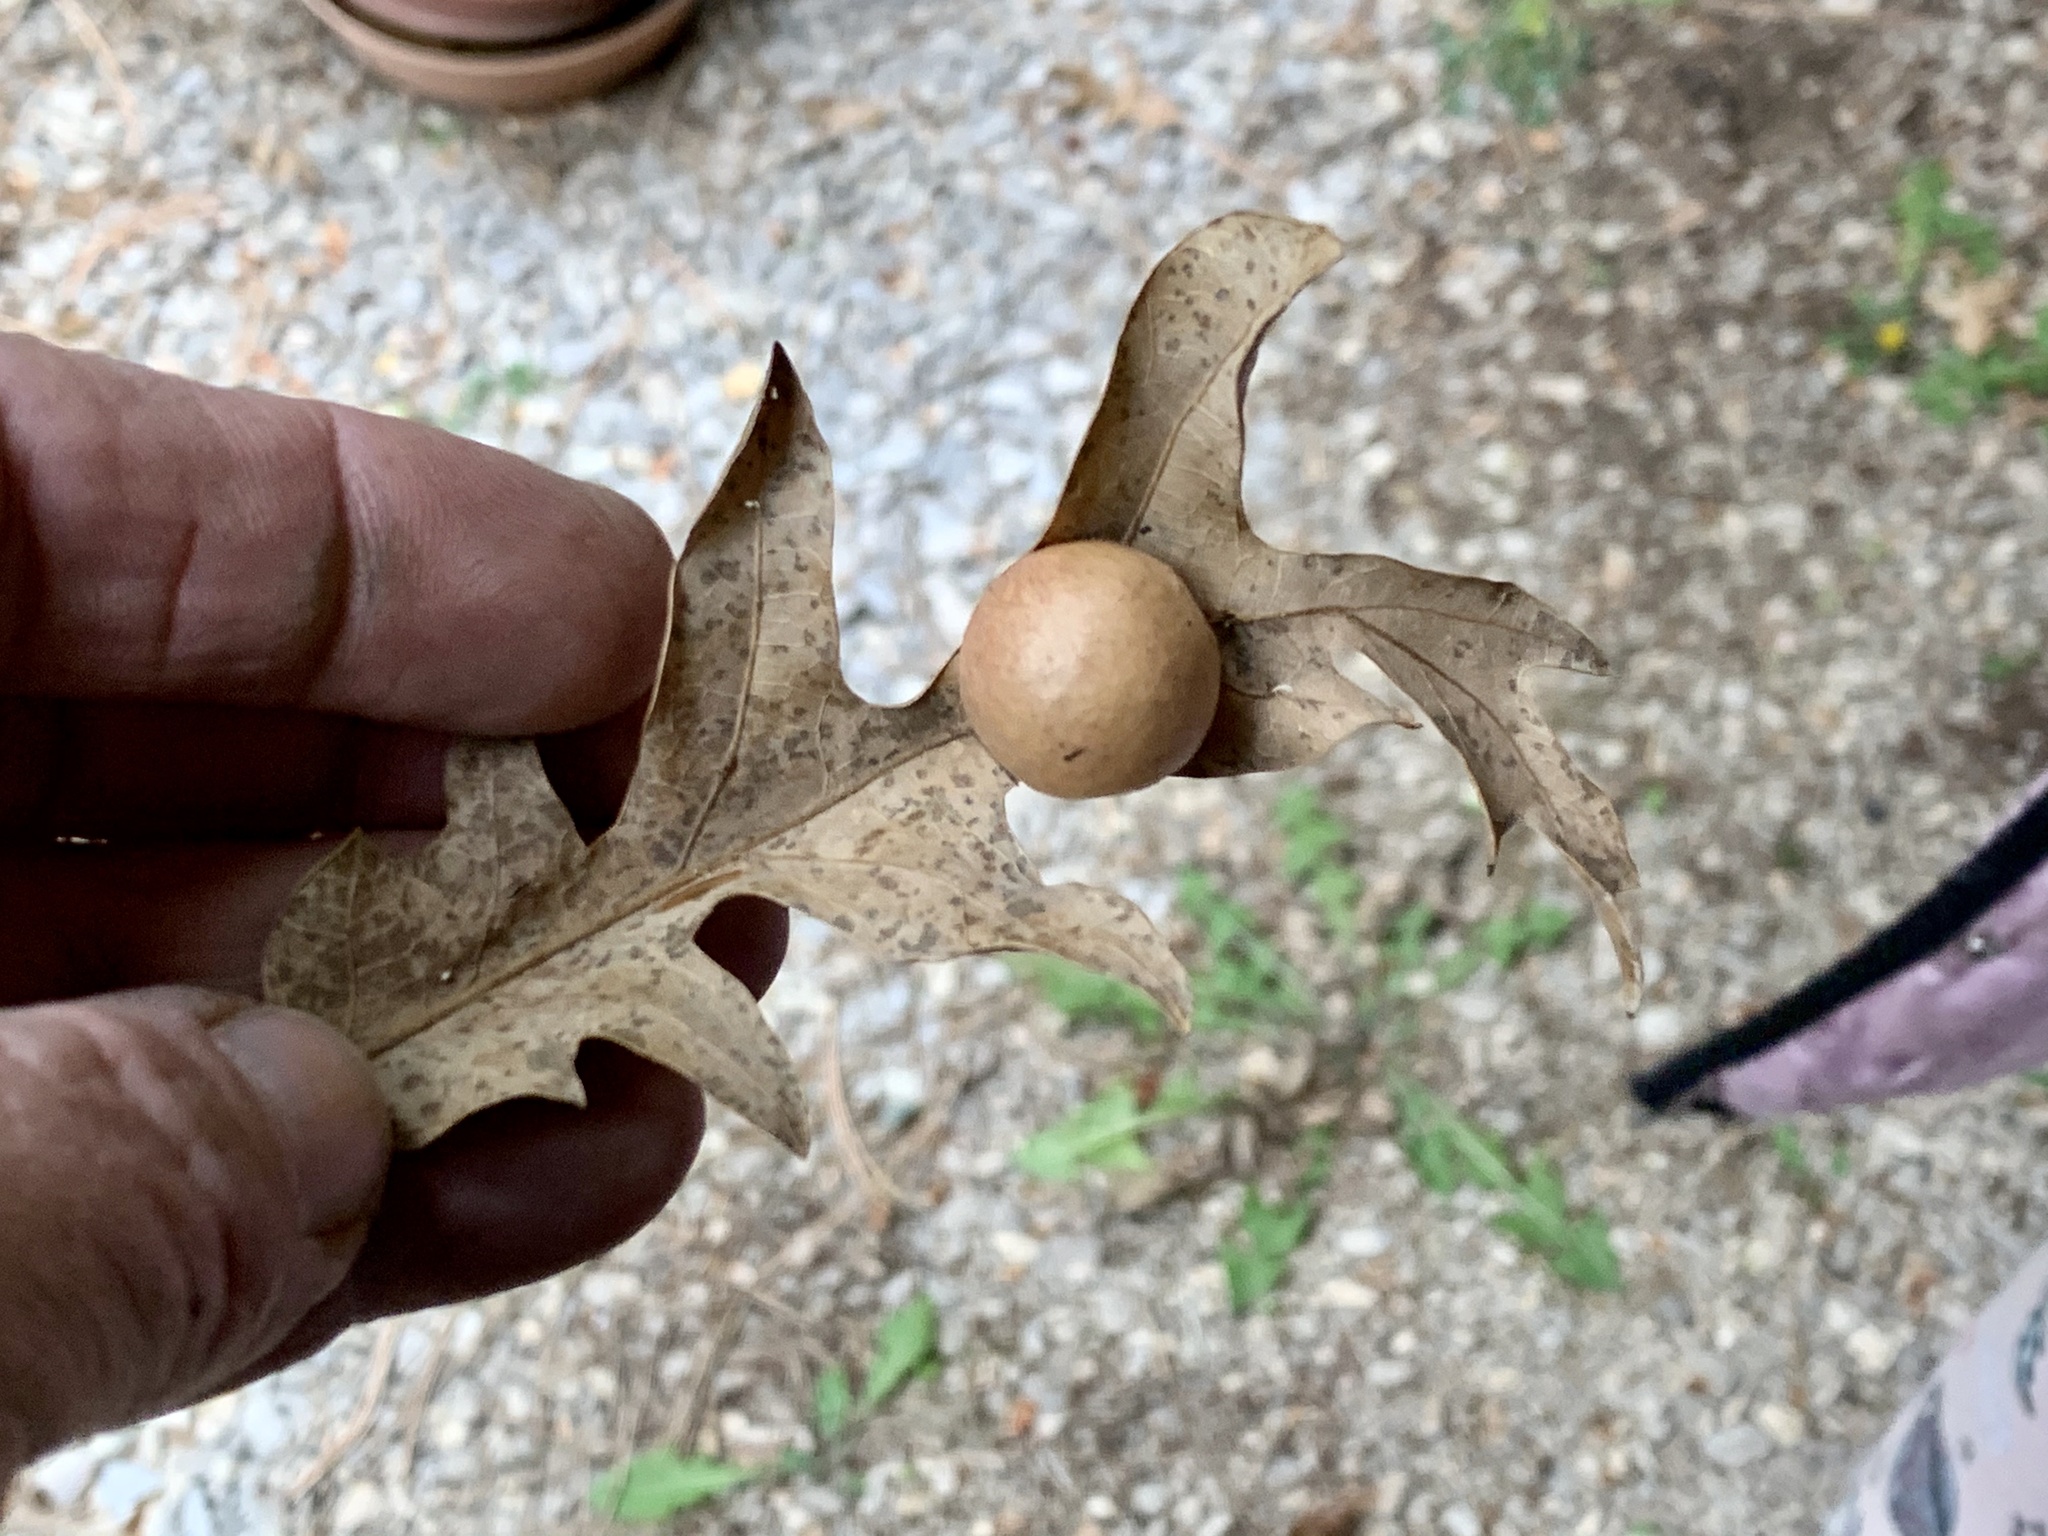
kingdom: Animalia
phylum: Arthropoda
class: Insecta
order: Hymenoptera
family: Cynipidae
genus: Atrusca
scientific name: Atrusca
